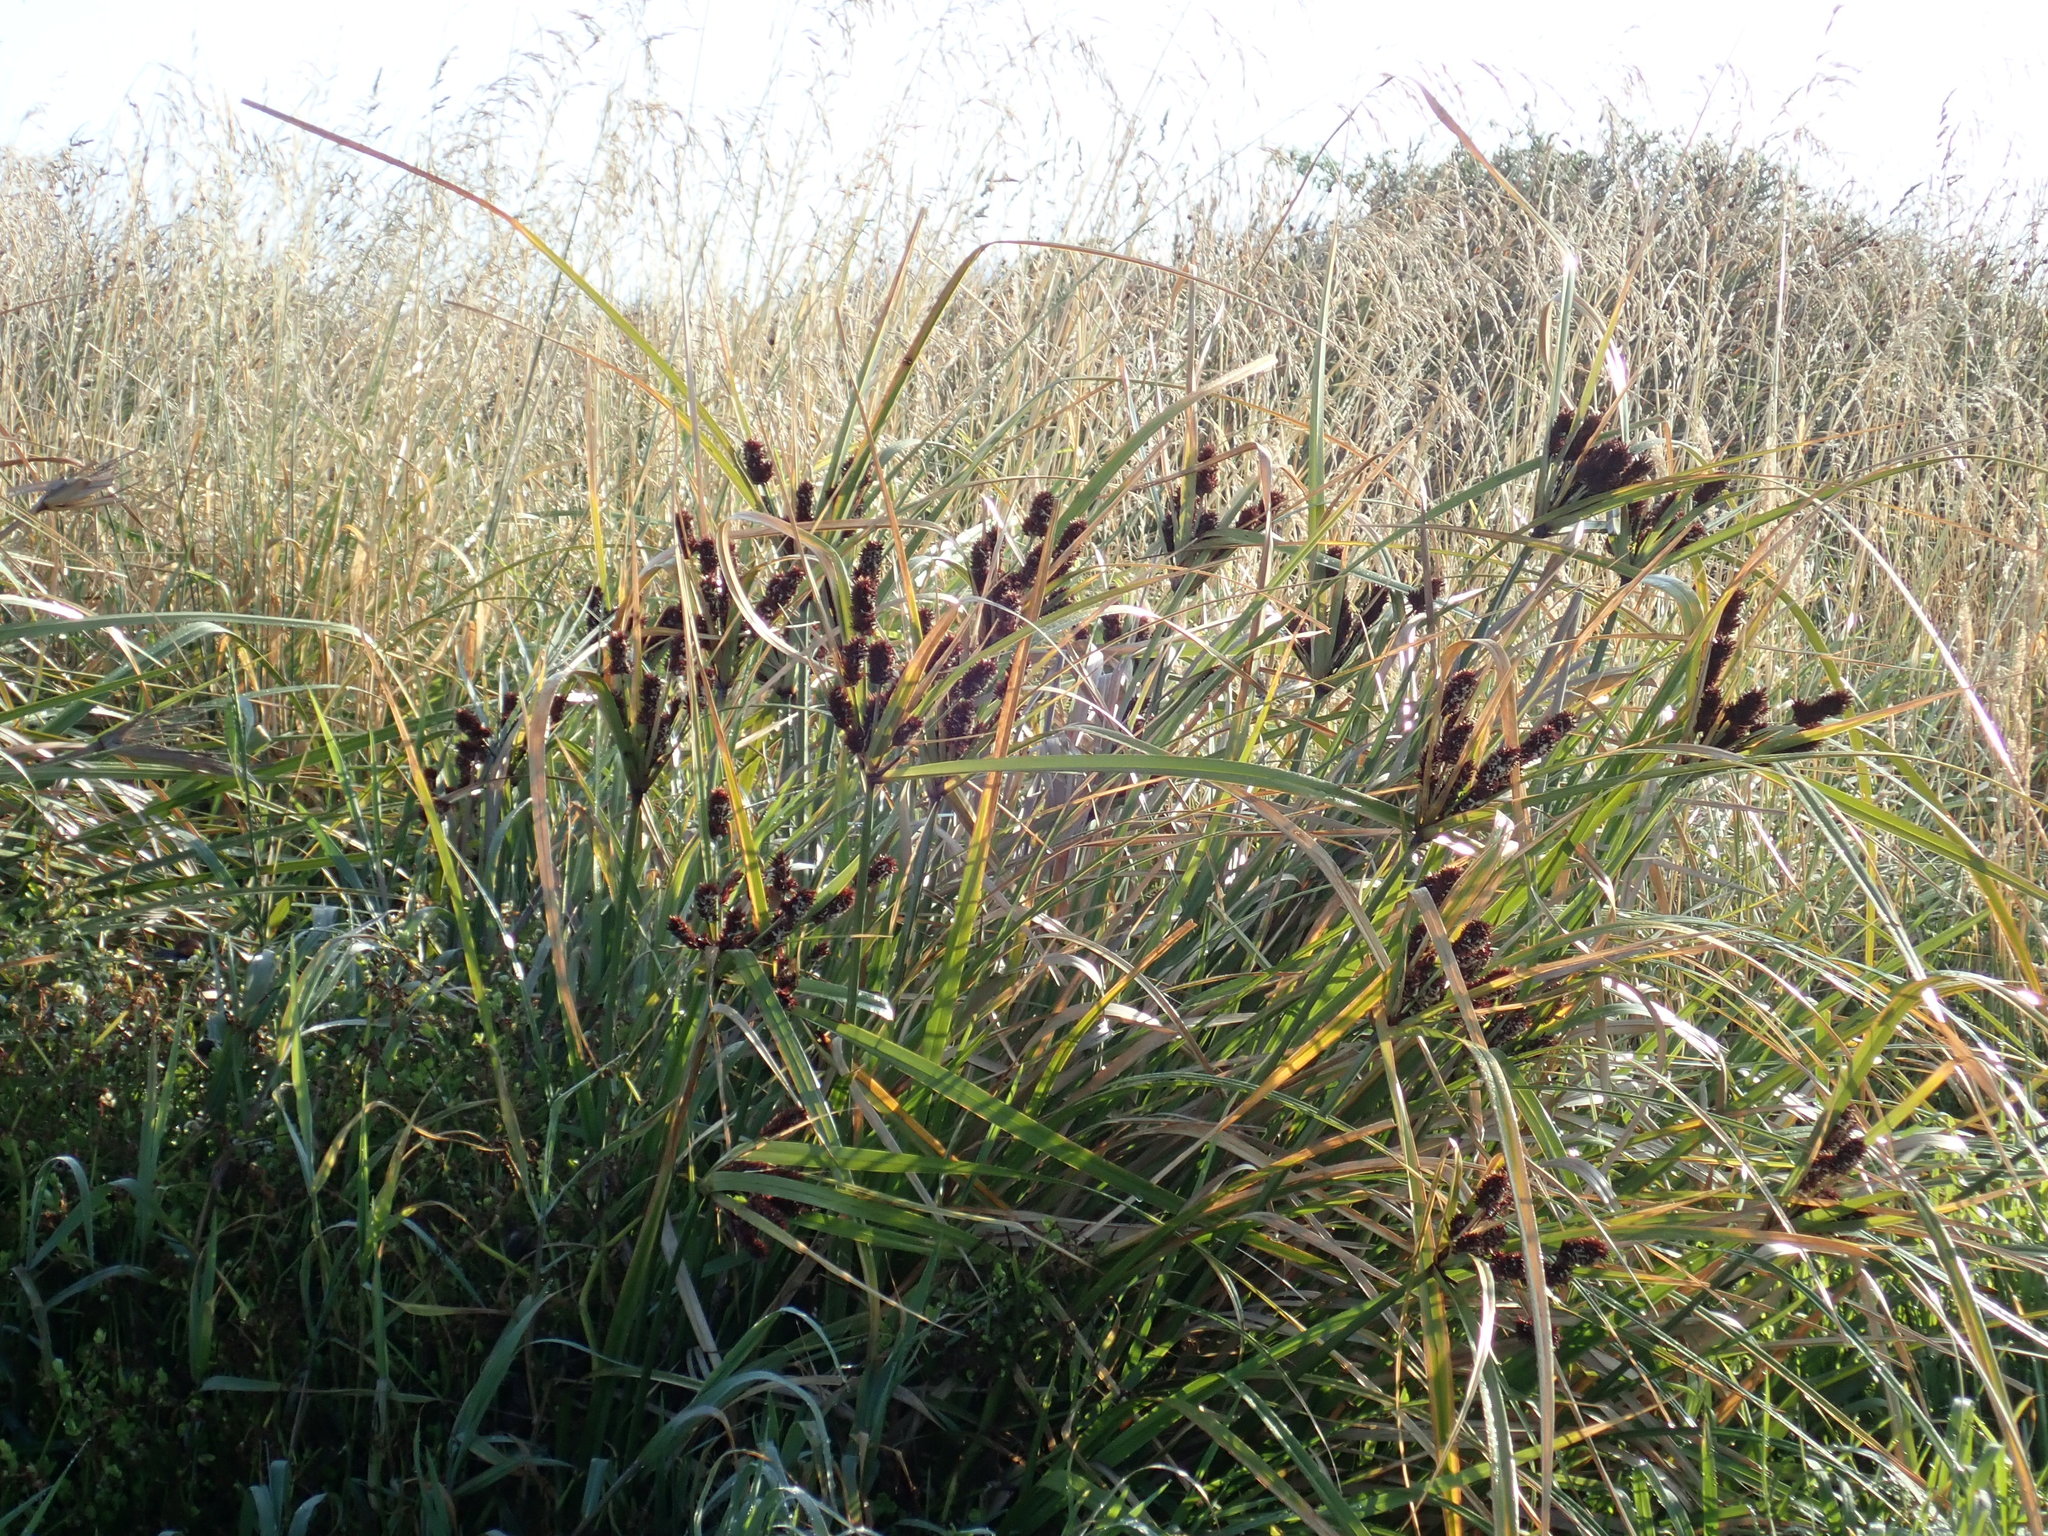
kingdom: Plantae
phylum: Tracheophyta
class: Liliopsida
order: Poales
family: Cyperaceae
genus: Cyperus
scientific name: Cyperus ustulatus
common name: Giant umbrella-sedge
